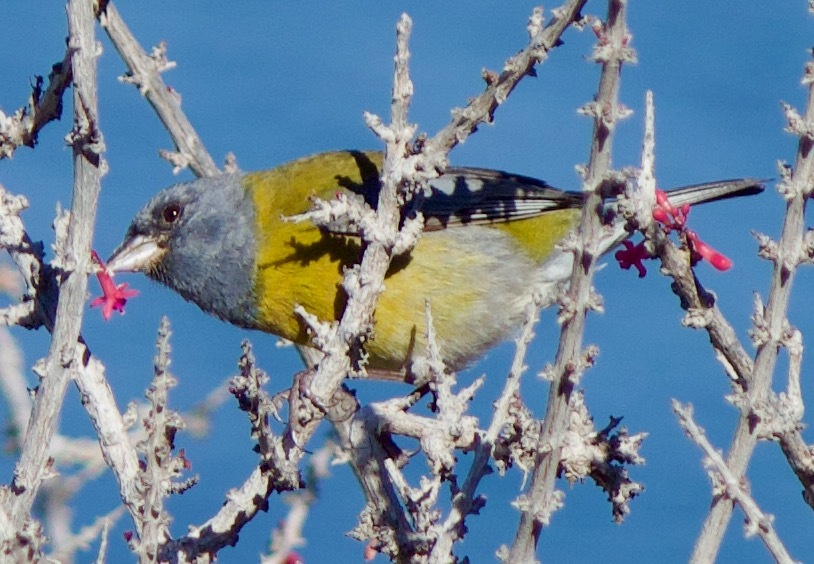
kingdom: Animalia
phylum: Chordata
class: Aves
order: Passeriformes
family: Thraupidae
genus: Phrygilus
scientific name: Phrygilus gayi
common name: Grey-hooded sierra finch
